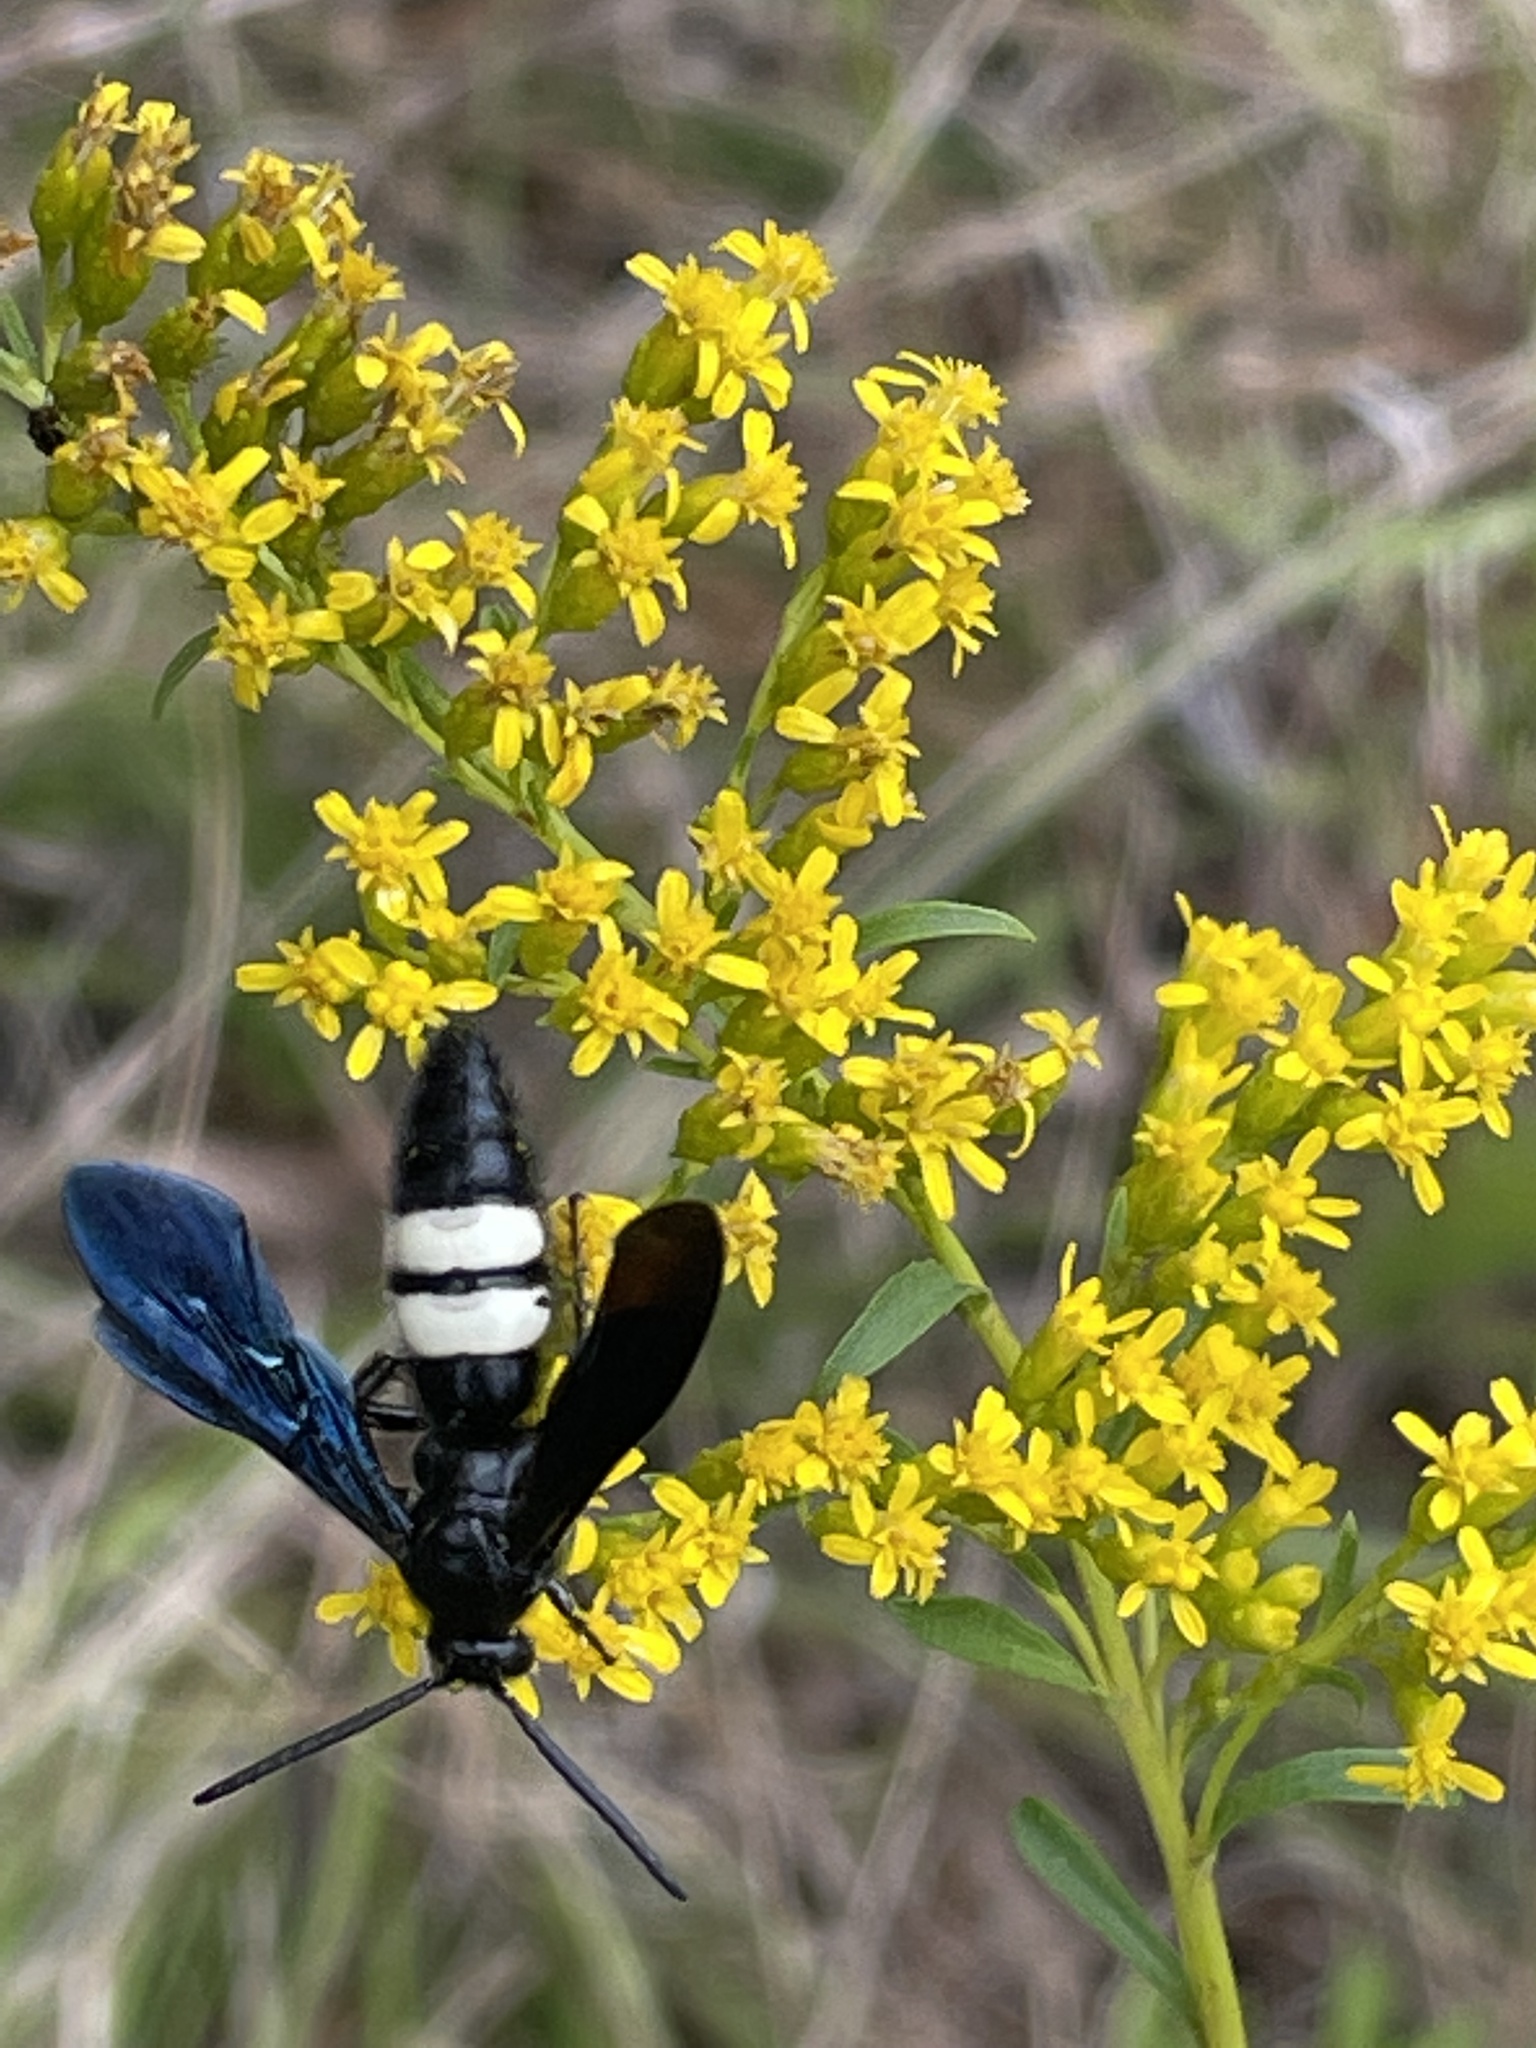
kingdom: Animalia
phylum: Arthropoda
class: Insecta
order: Hymenoptera
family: Scoliidae
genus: Scolia
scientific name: Scolia bicincta
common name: Double-banded scoliid wasp
